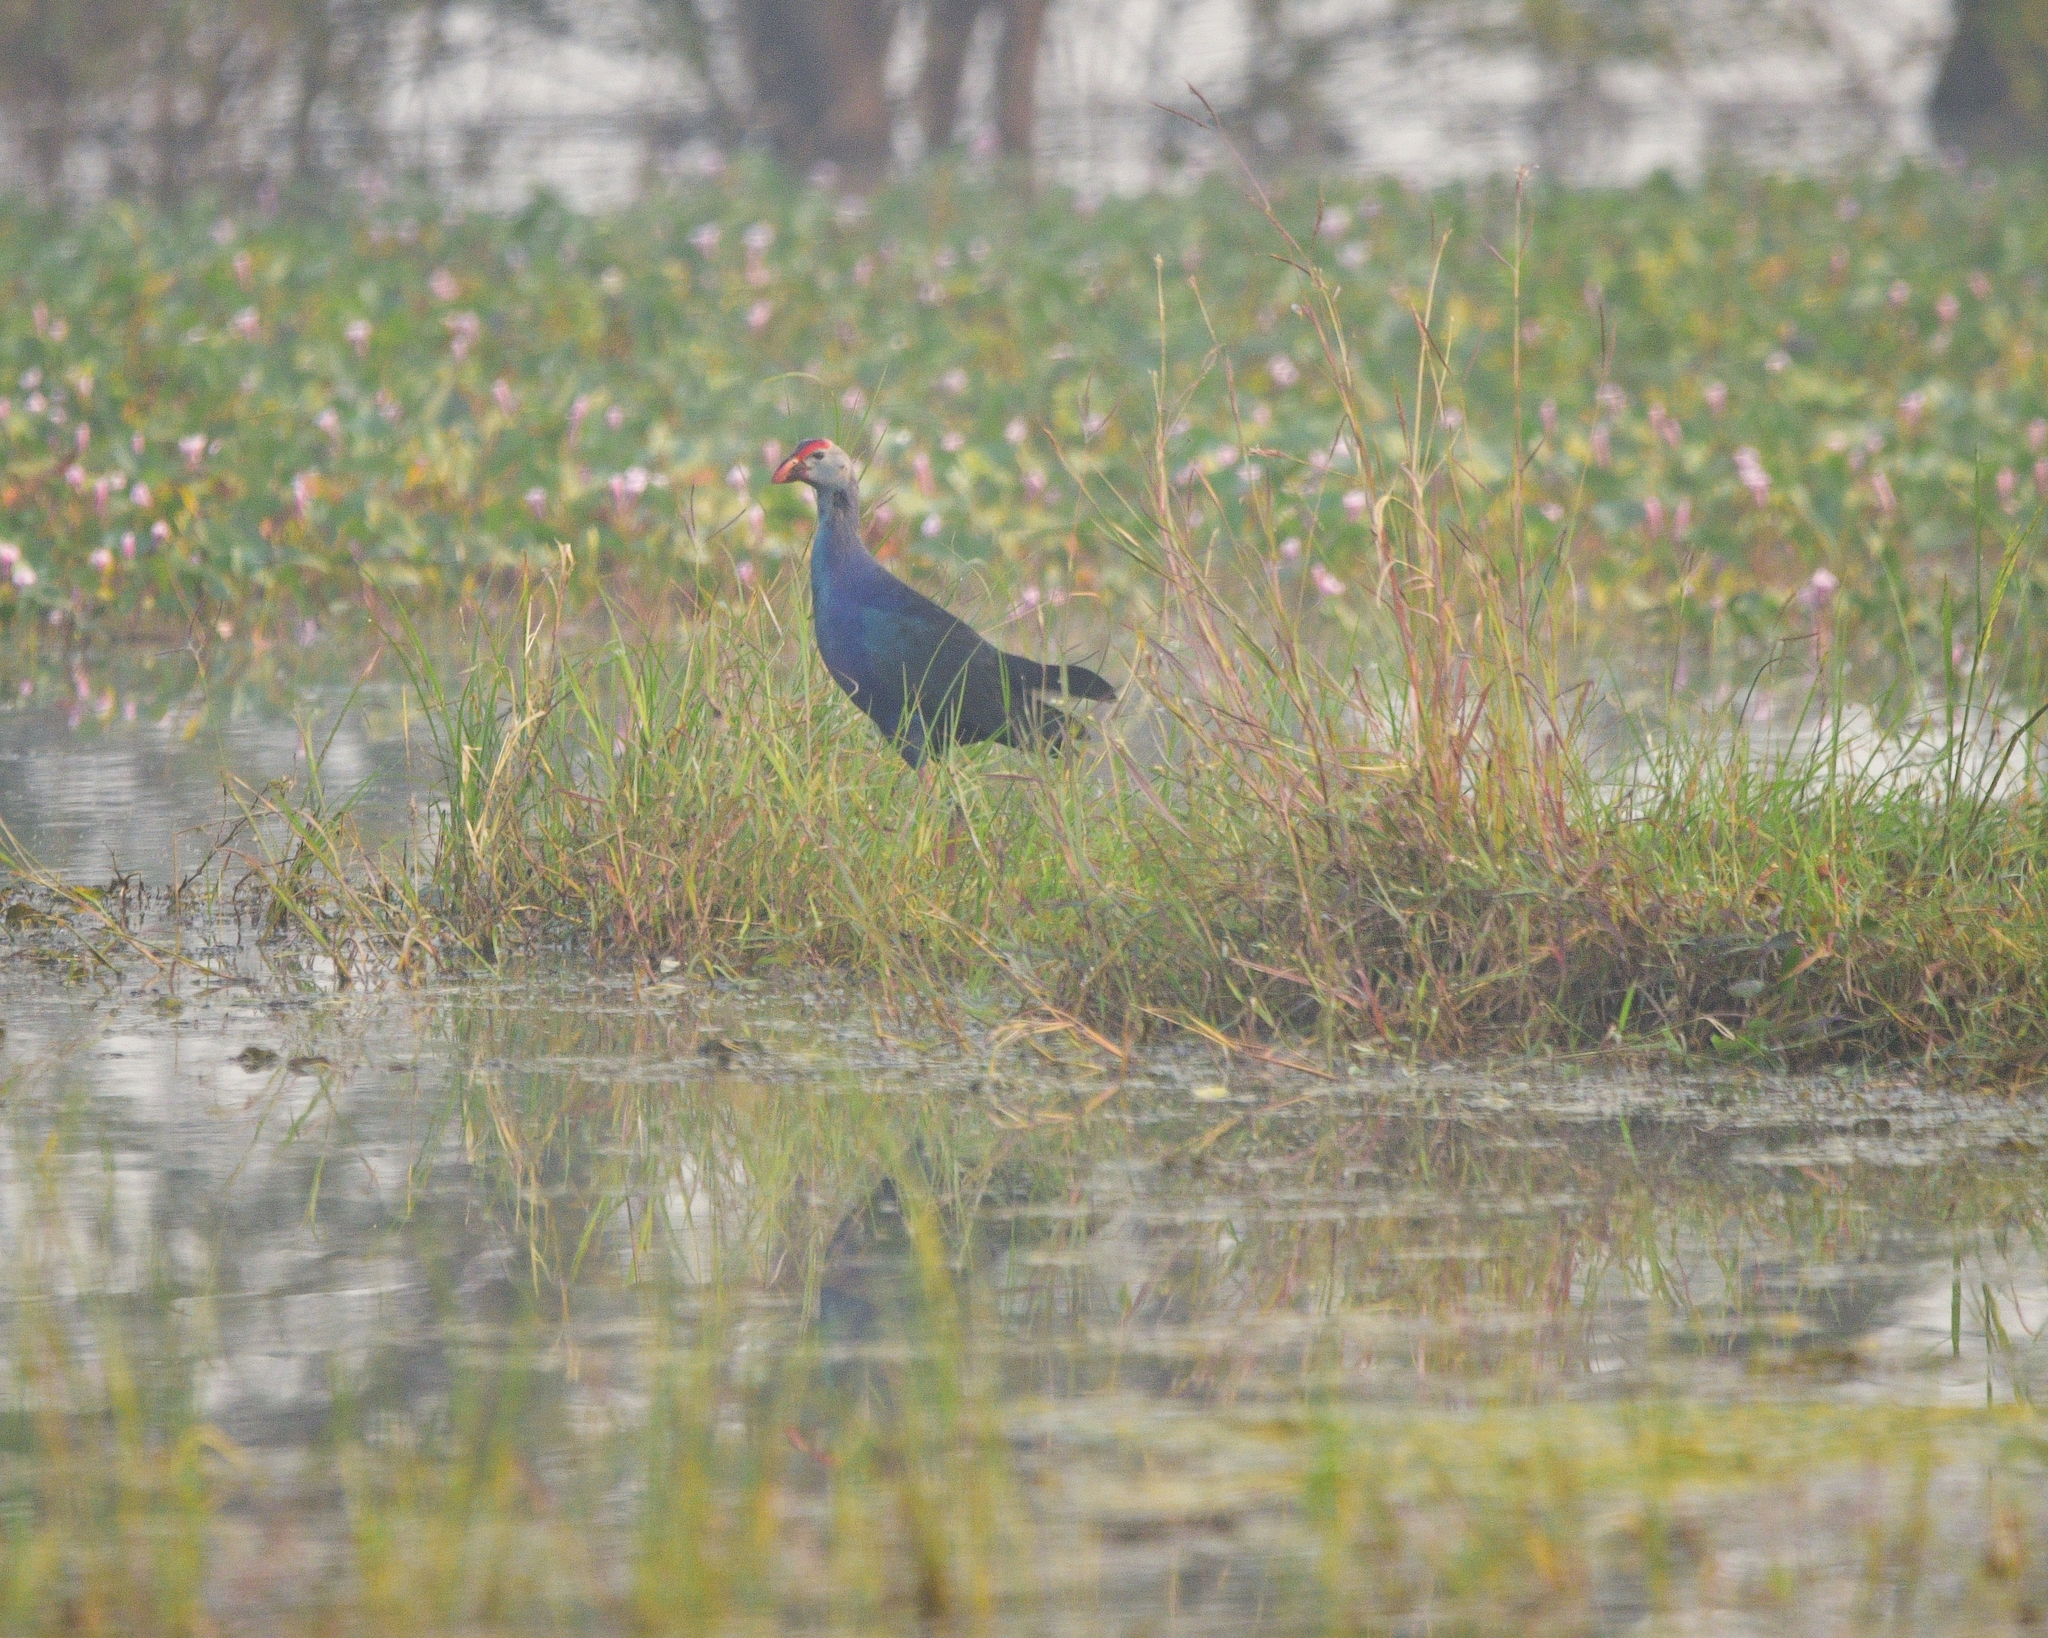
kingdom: Animalia
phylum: Chordata
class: Aves
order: Gruiformes
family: Rallidae
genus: Porphyrio
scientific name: Porphyrio porphyrio
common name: Purple swamphen
